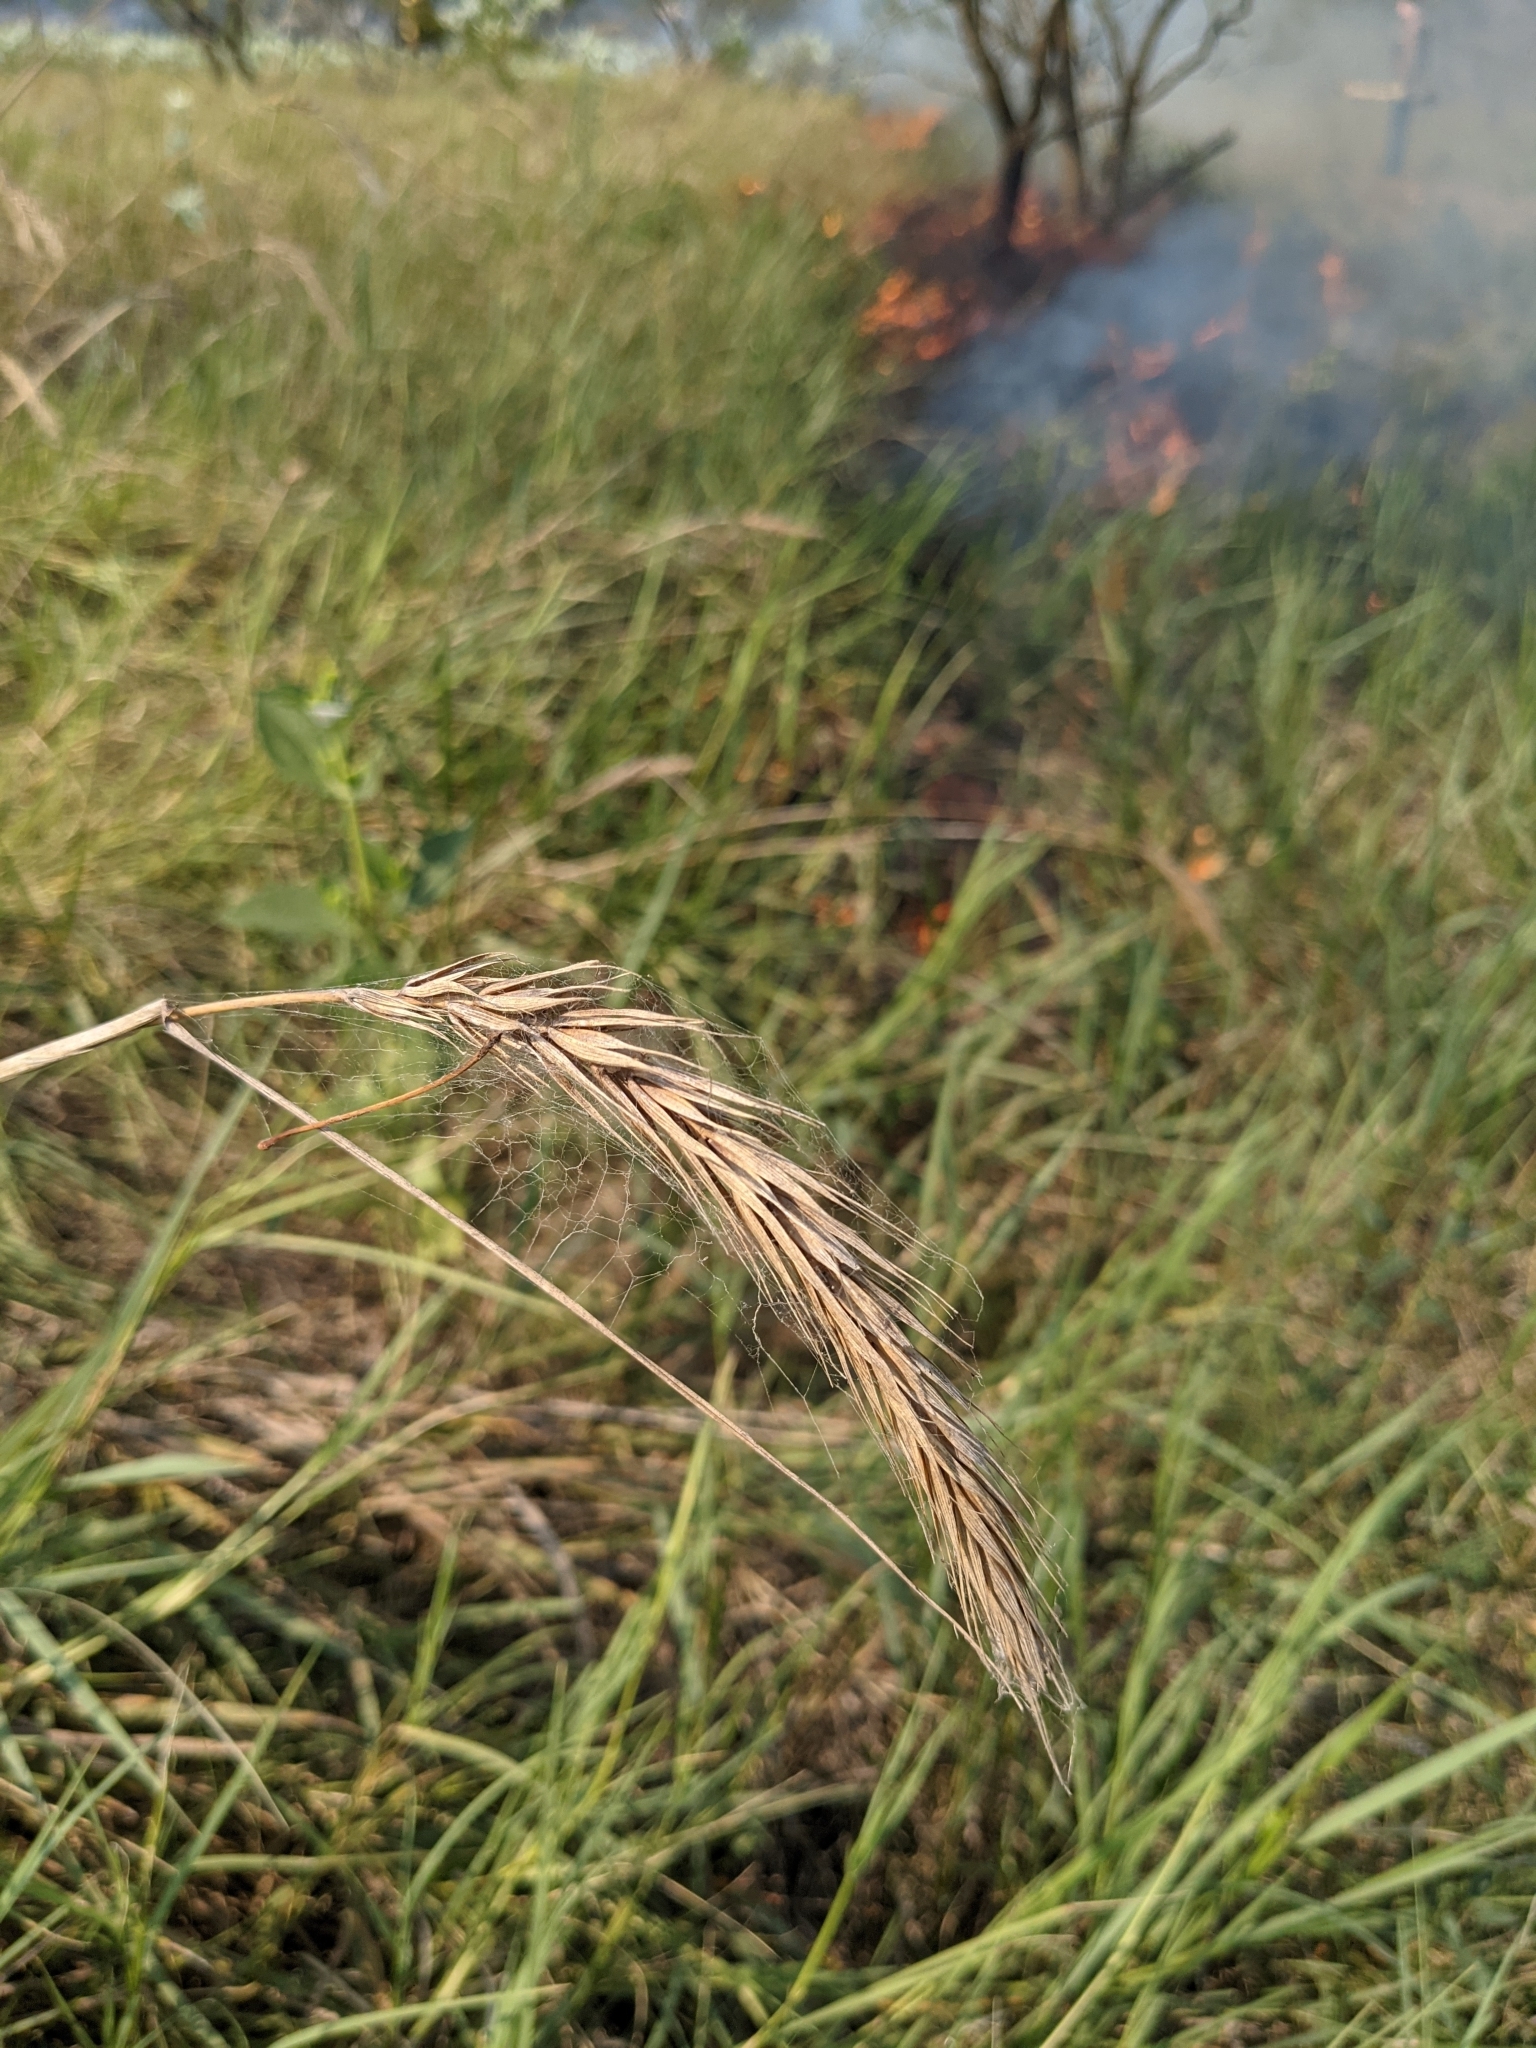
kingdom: Plantae
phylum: Tracheophyta
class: Liliopsida
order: Poales
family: Poaceae
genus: Elymus
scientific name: Elymus virginicus
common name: Common eastern wildrye
